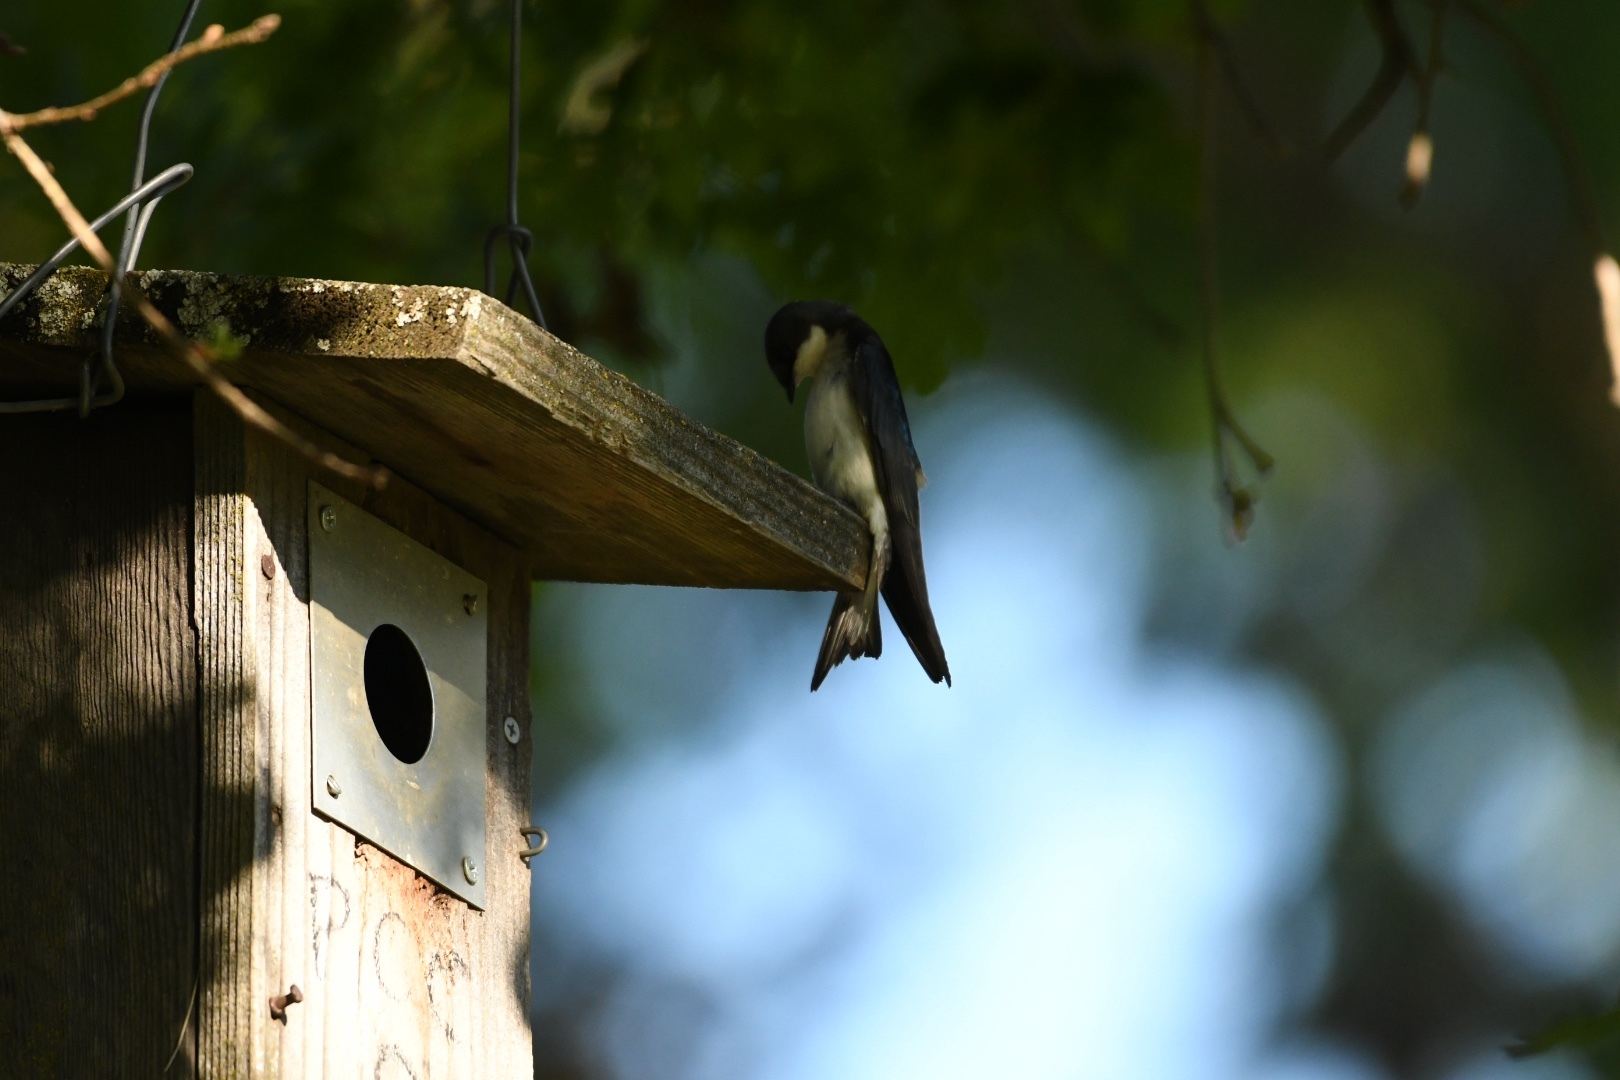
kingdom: Animalia
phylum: Chordata
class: Aves
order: Passeriformes
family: Hirundinidae
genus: Tachycineta
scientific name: Tachycineta bicolor
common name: Tree swallow
